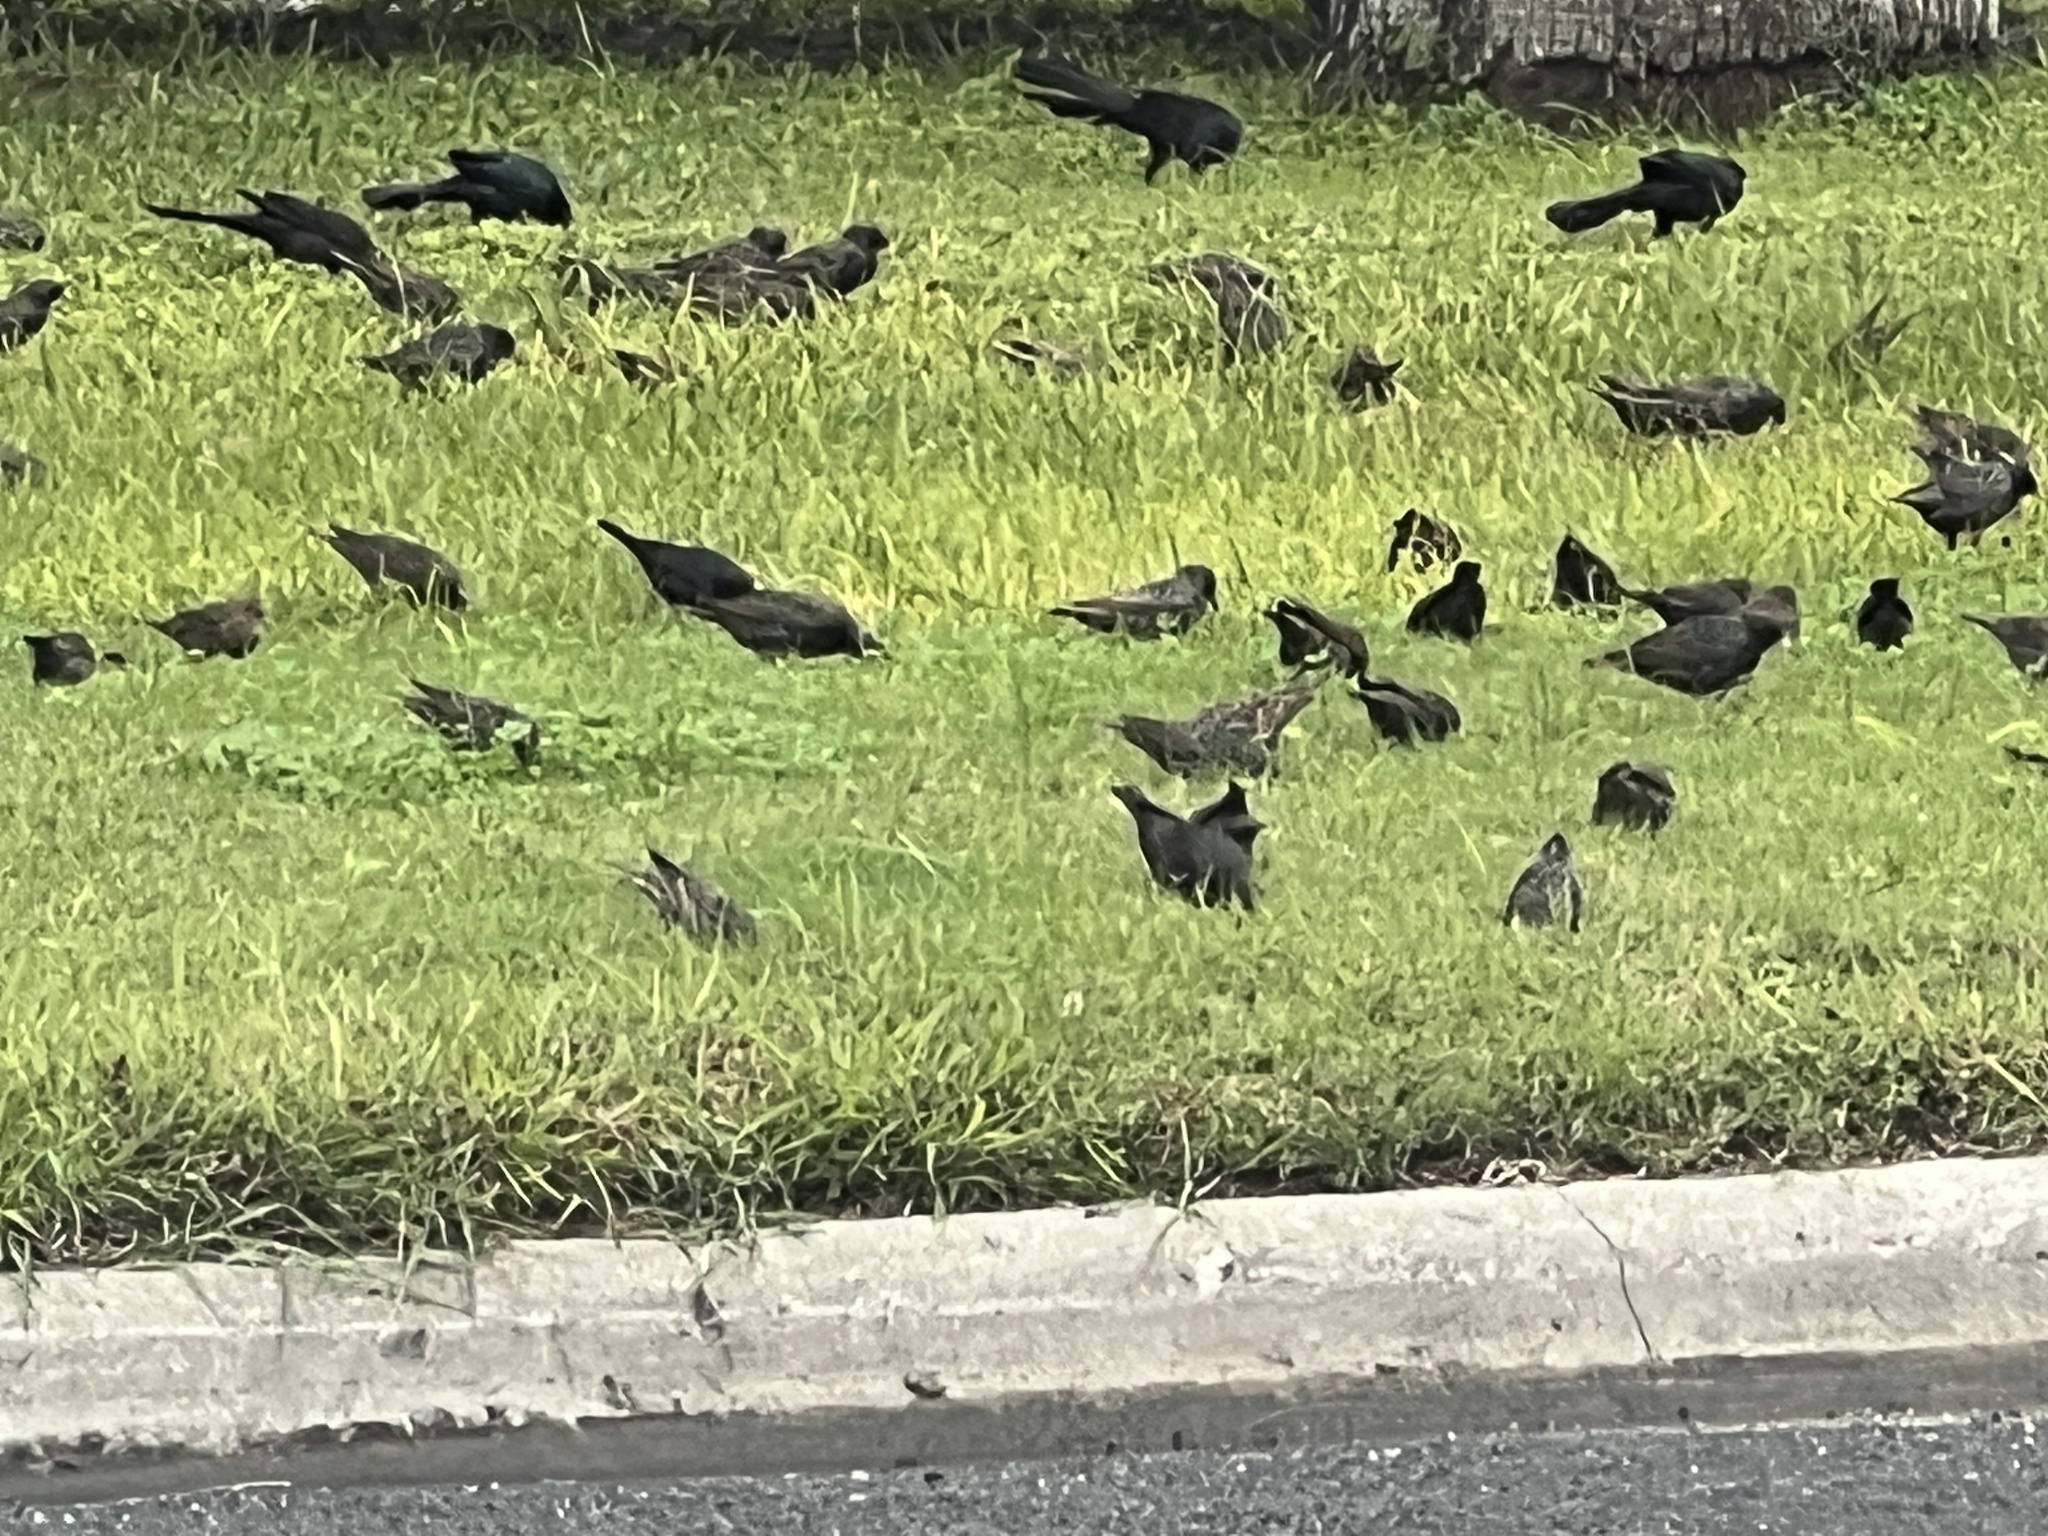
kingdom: Animalia
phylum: Chordata
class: Aves
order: Passeriformes
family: Icteridae
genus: Quiscalus
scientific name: Quiscalus mexicanus
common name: Great-tailed grackle
